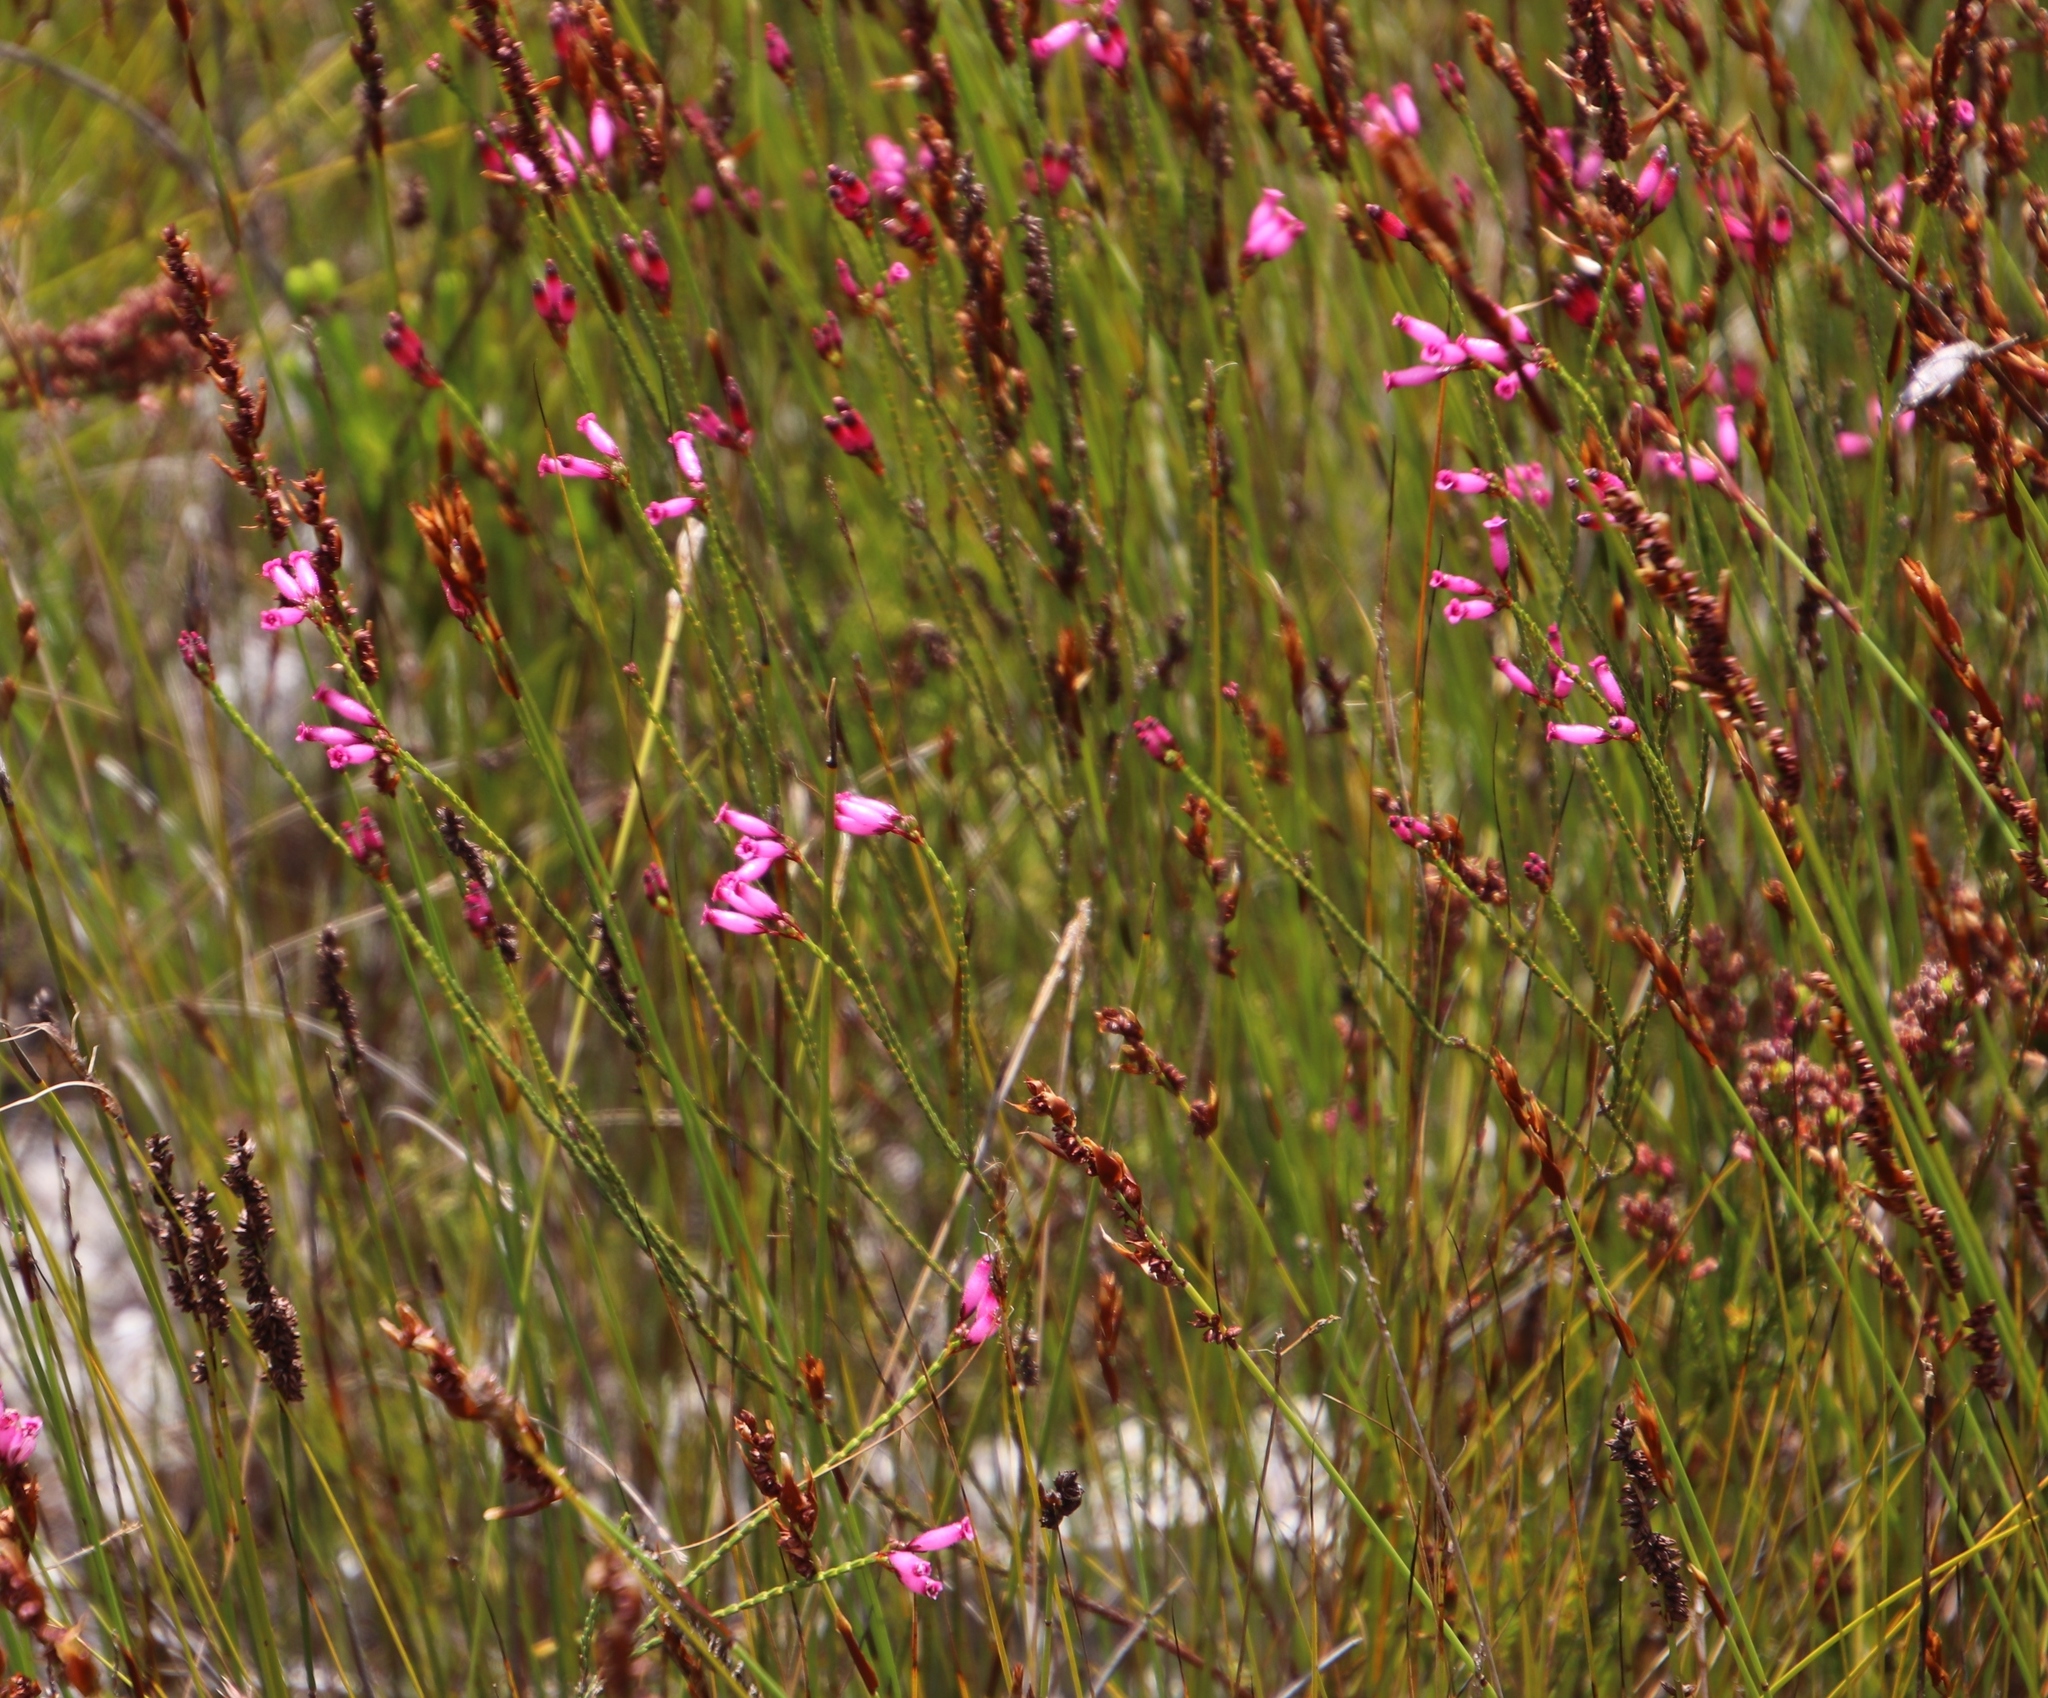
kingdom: Plantae
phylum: Tracheophyta
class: Magnoliopsida
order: Ericales
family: Ericaceae
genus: Erica
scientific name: Erica cristata
